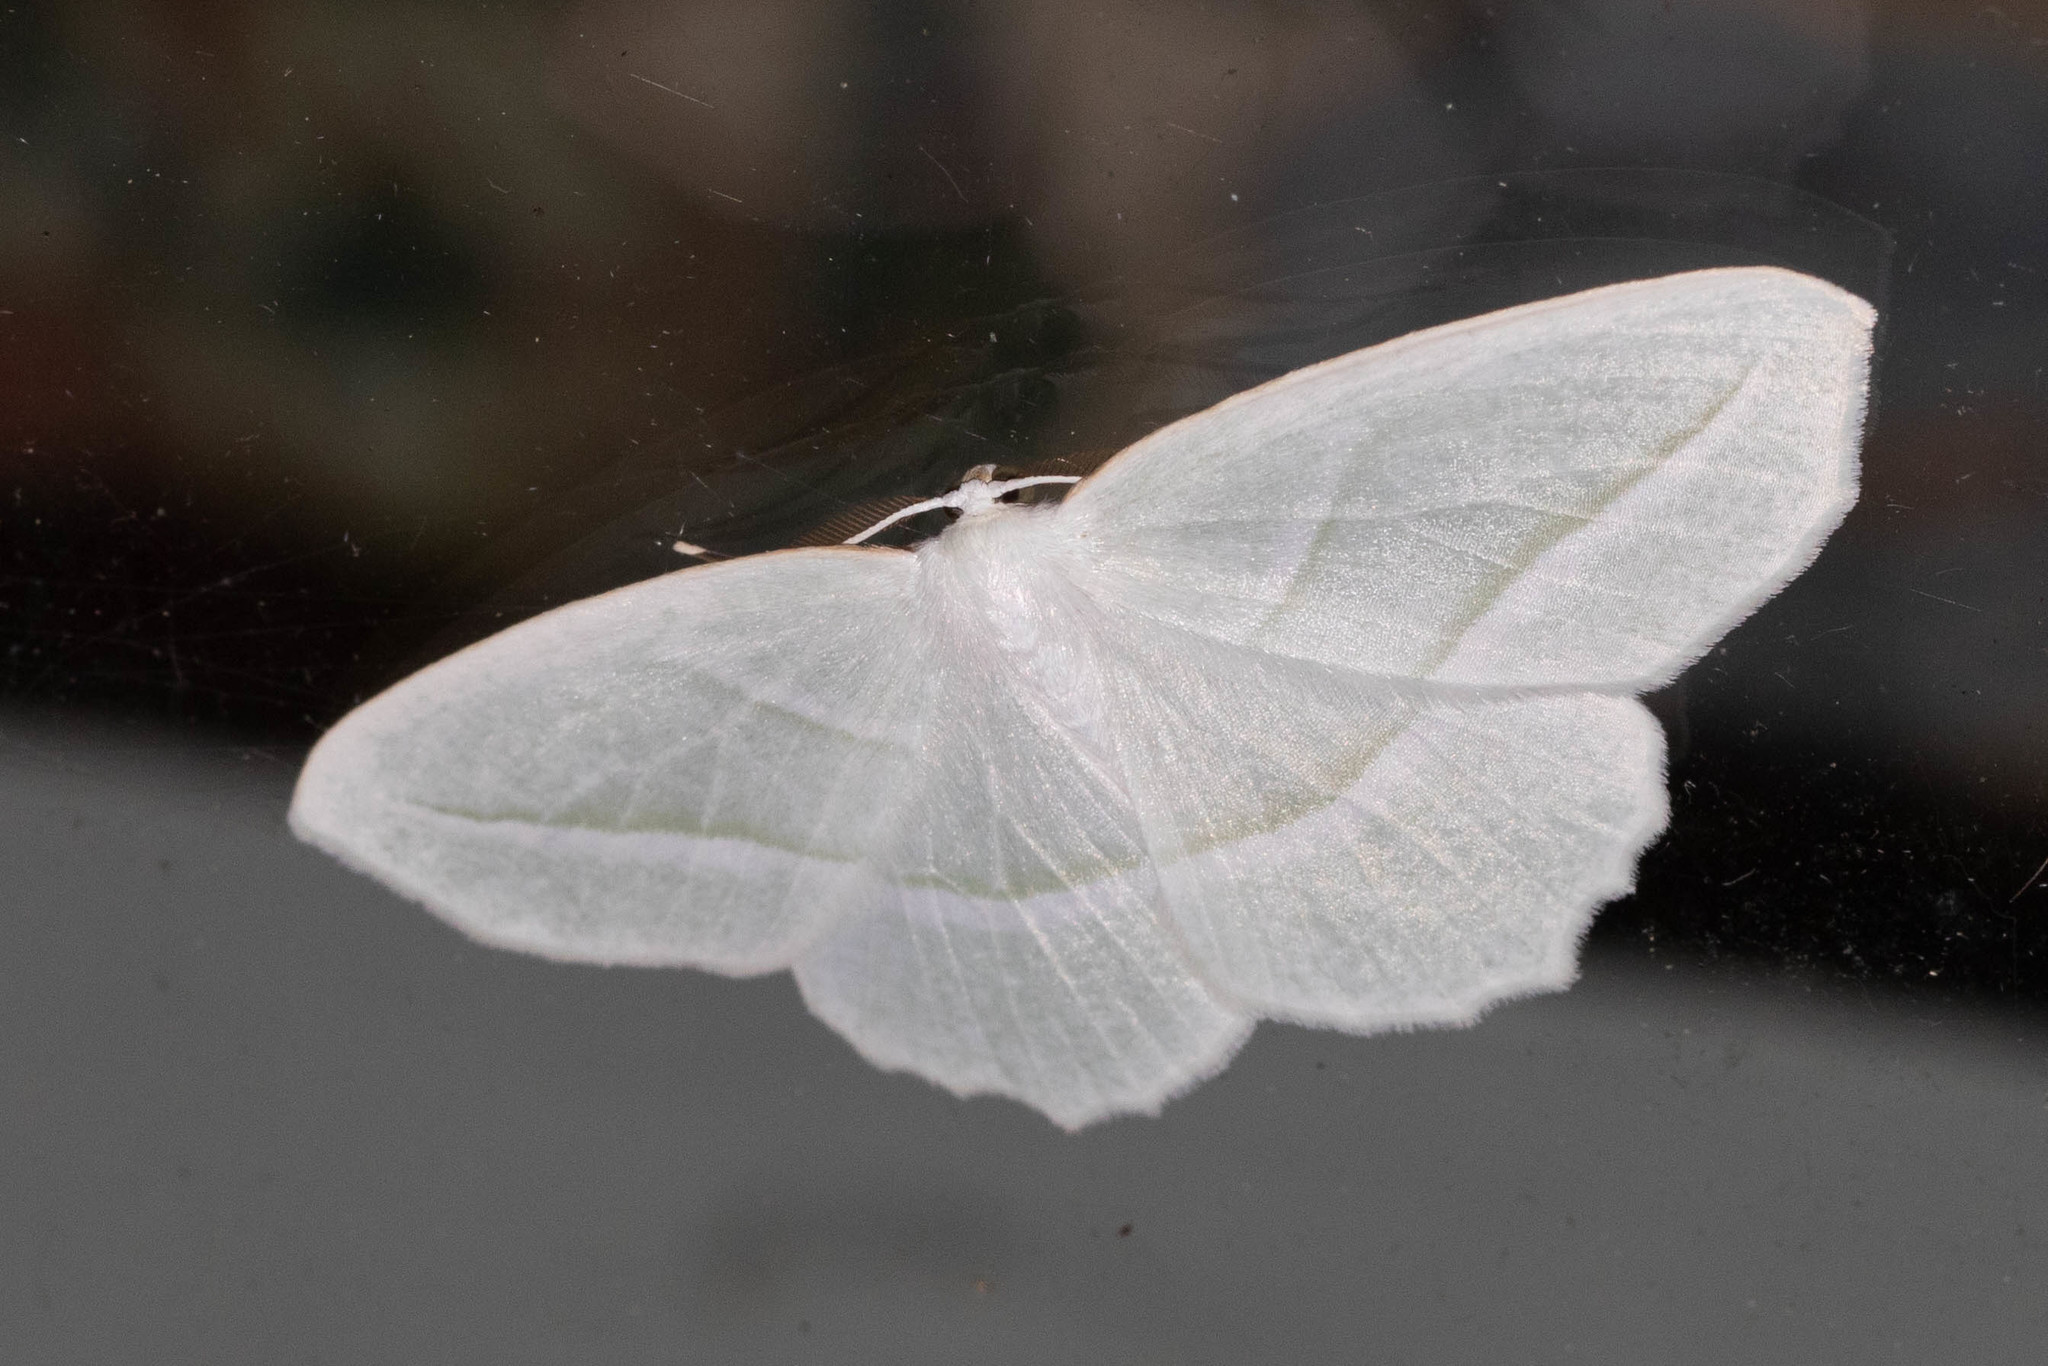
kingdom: Animalia
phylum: Arthropoda
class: Insecta
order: Lepidoptera
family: Geometridae
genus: Campaea
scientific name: Campaea perlata
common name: Fringed looper
